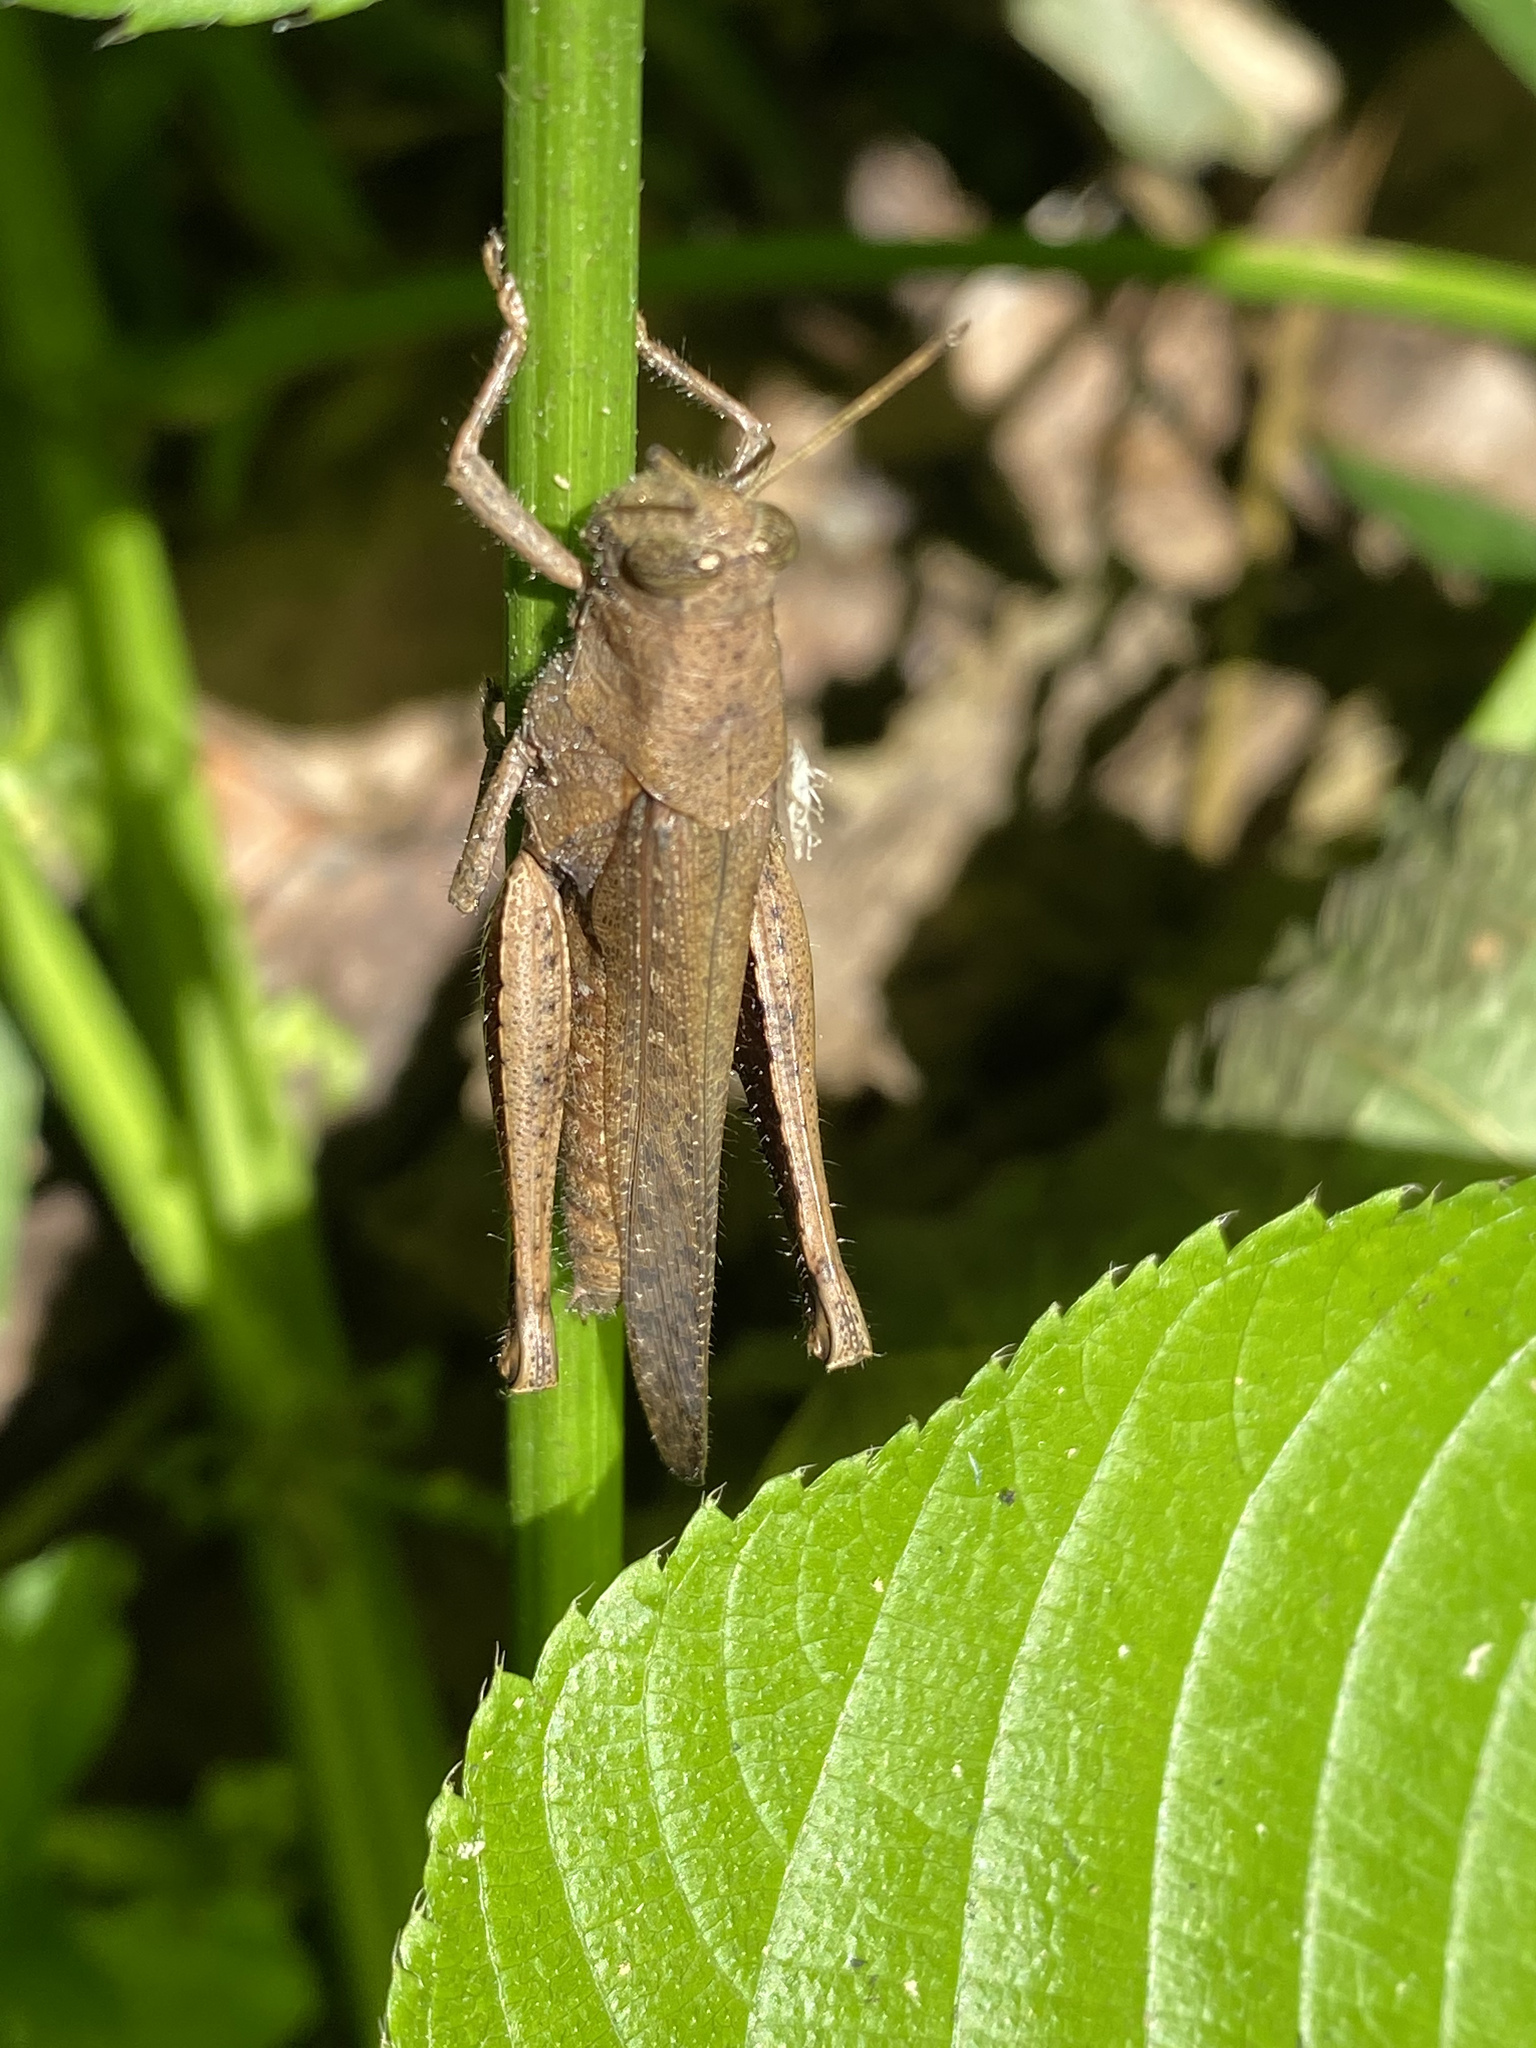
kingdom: Animalia
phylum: Arthropoda
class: Insecta
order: Orthoptera
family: Acrididae
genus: Abracris
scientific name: Abracris flavolineata
